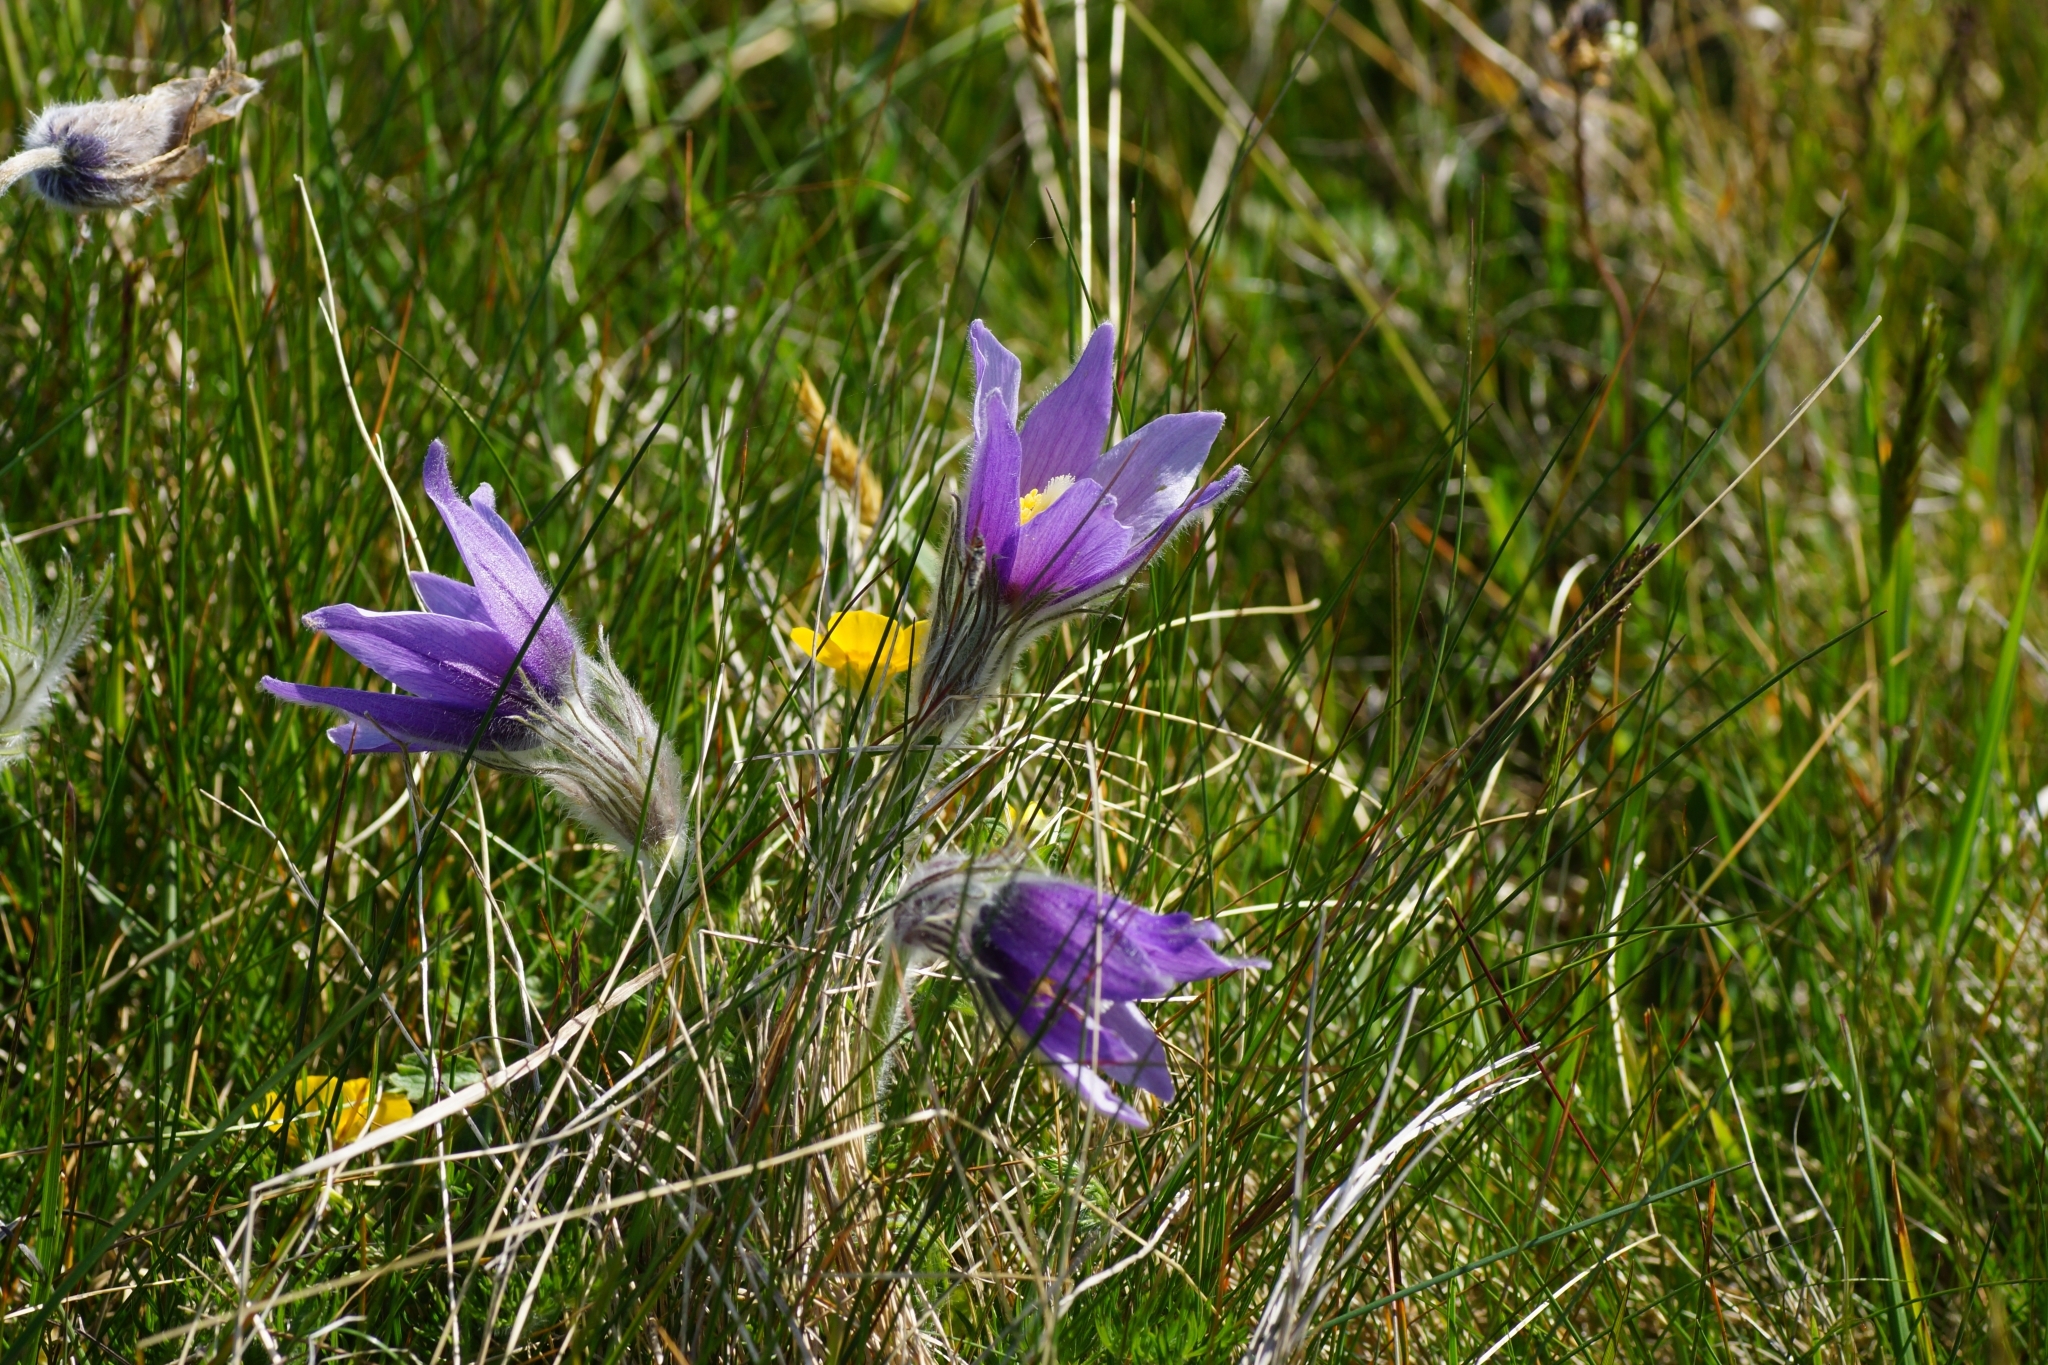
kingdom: Plantae
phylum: Tracheophyta
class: Magnoliopsida
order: Ranunculales
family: Ranunculaceae
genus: Pulsatilla
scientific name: Pulsatilla vulgaris
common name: Pasqueflower
